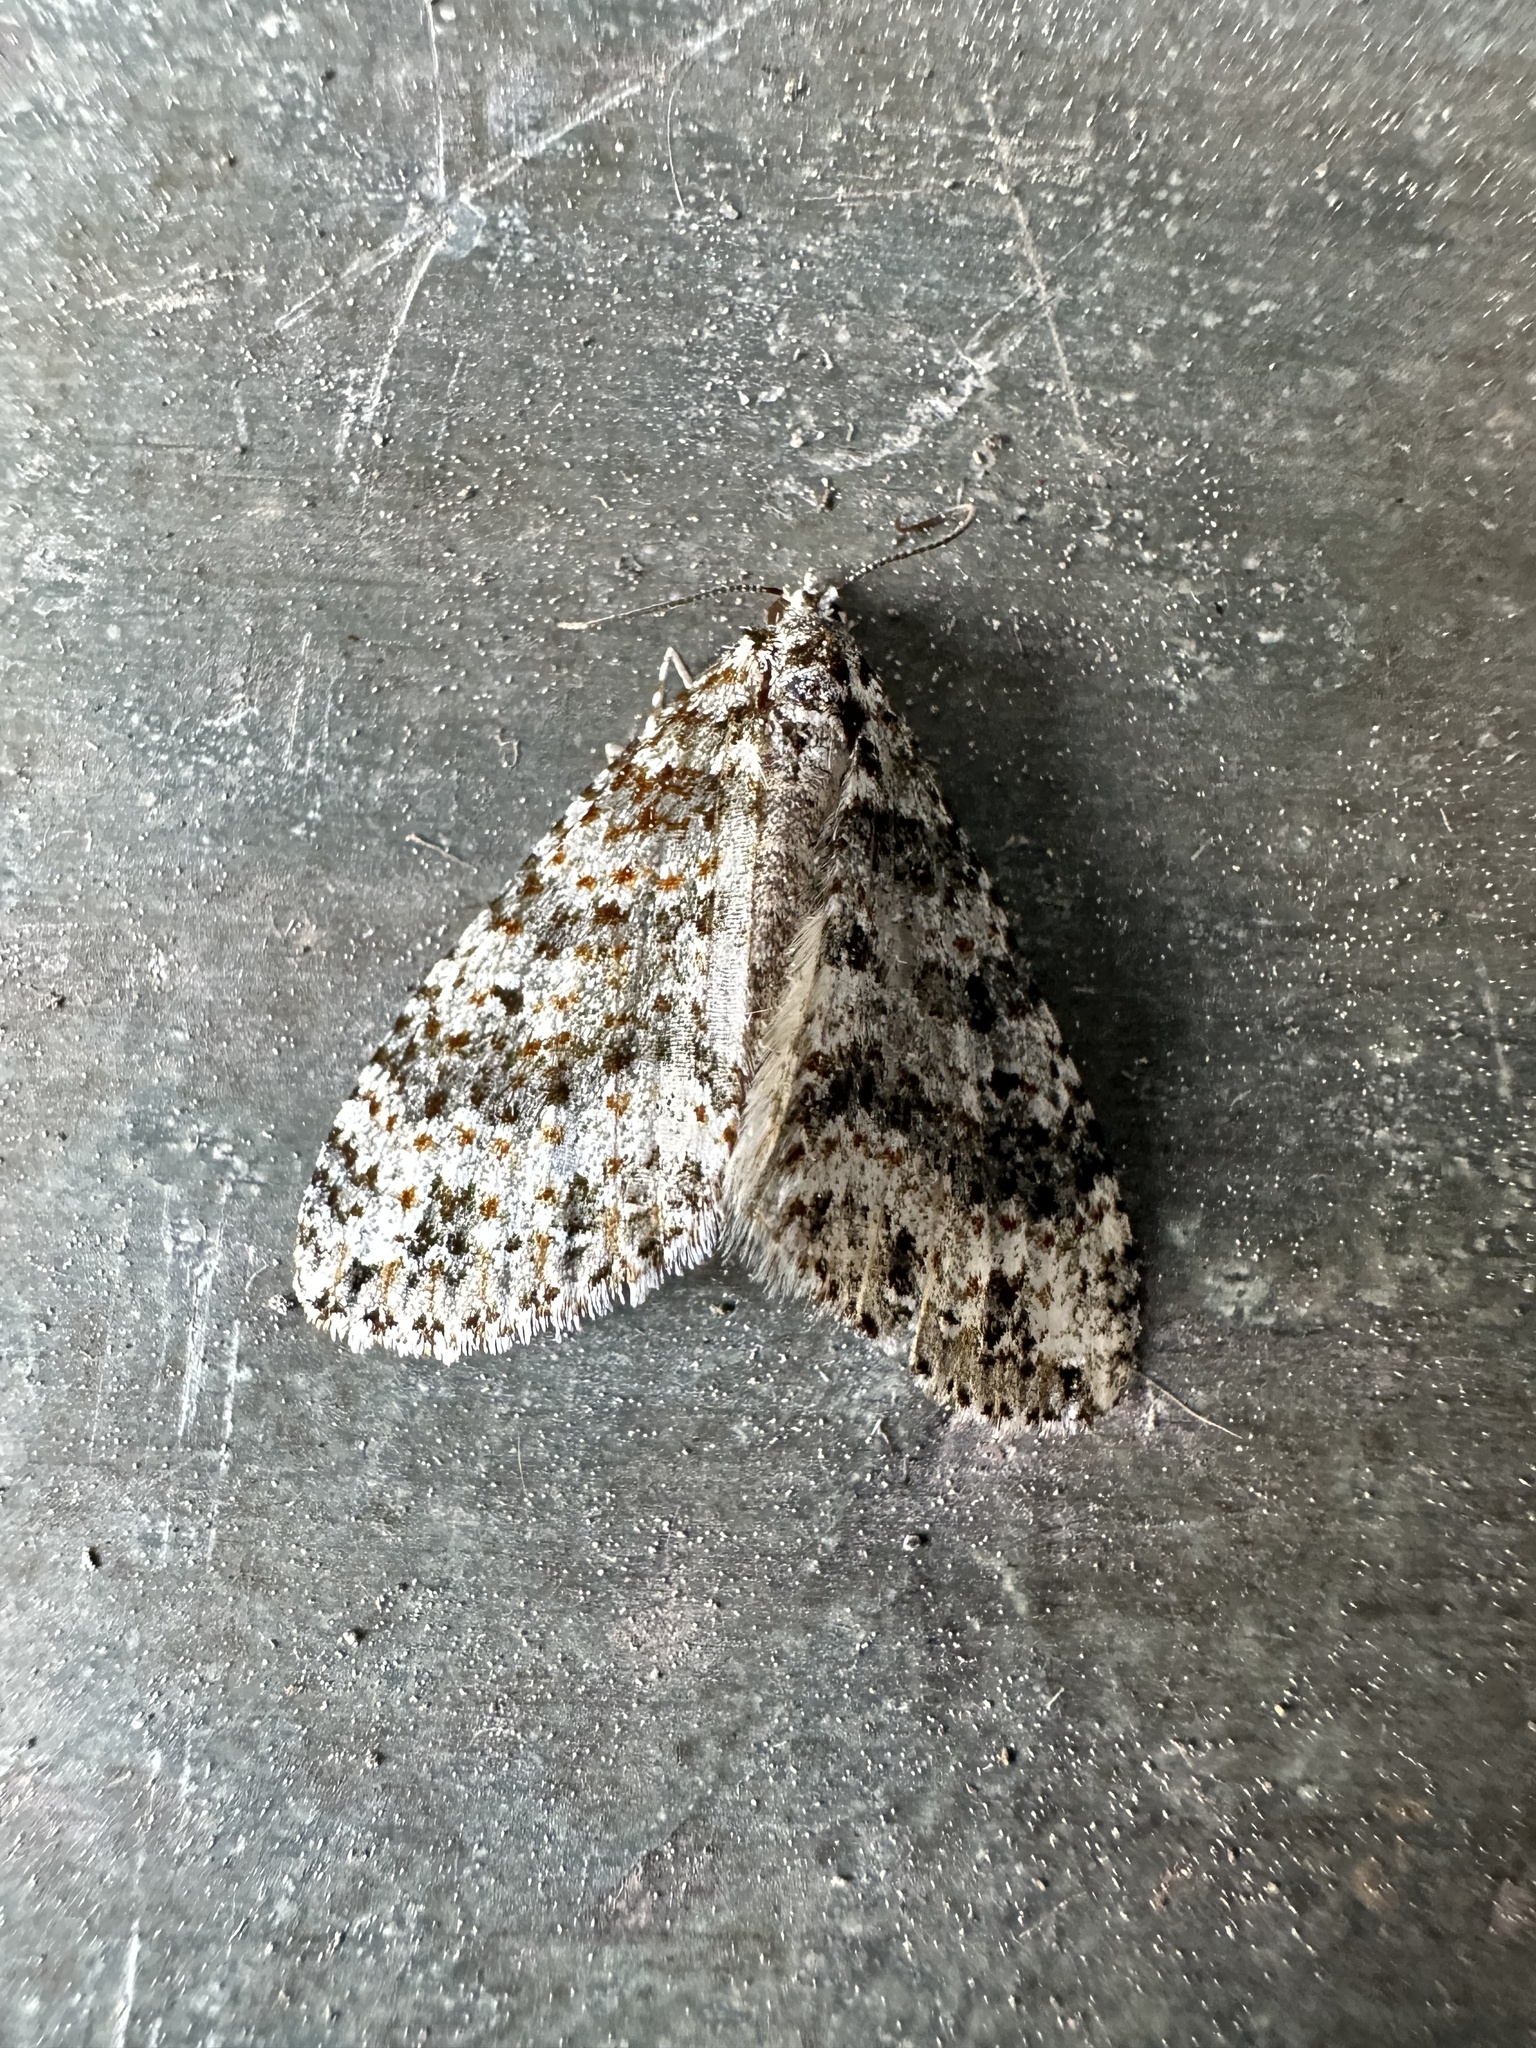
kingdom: Animalia
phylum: Arthropoda
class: Insecta
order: Lepidoptera
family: Geometridae
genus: Hoplosauris
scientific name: Hoplosauris granitata
